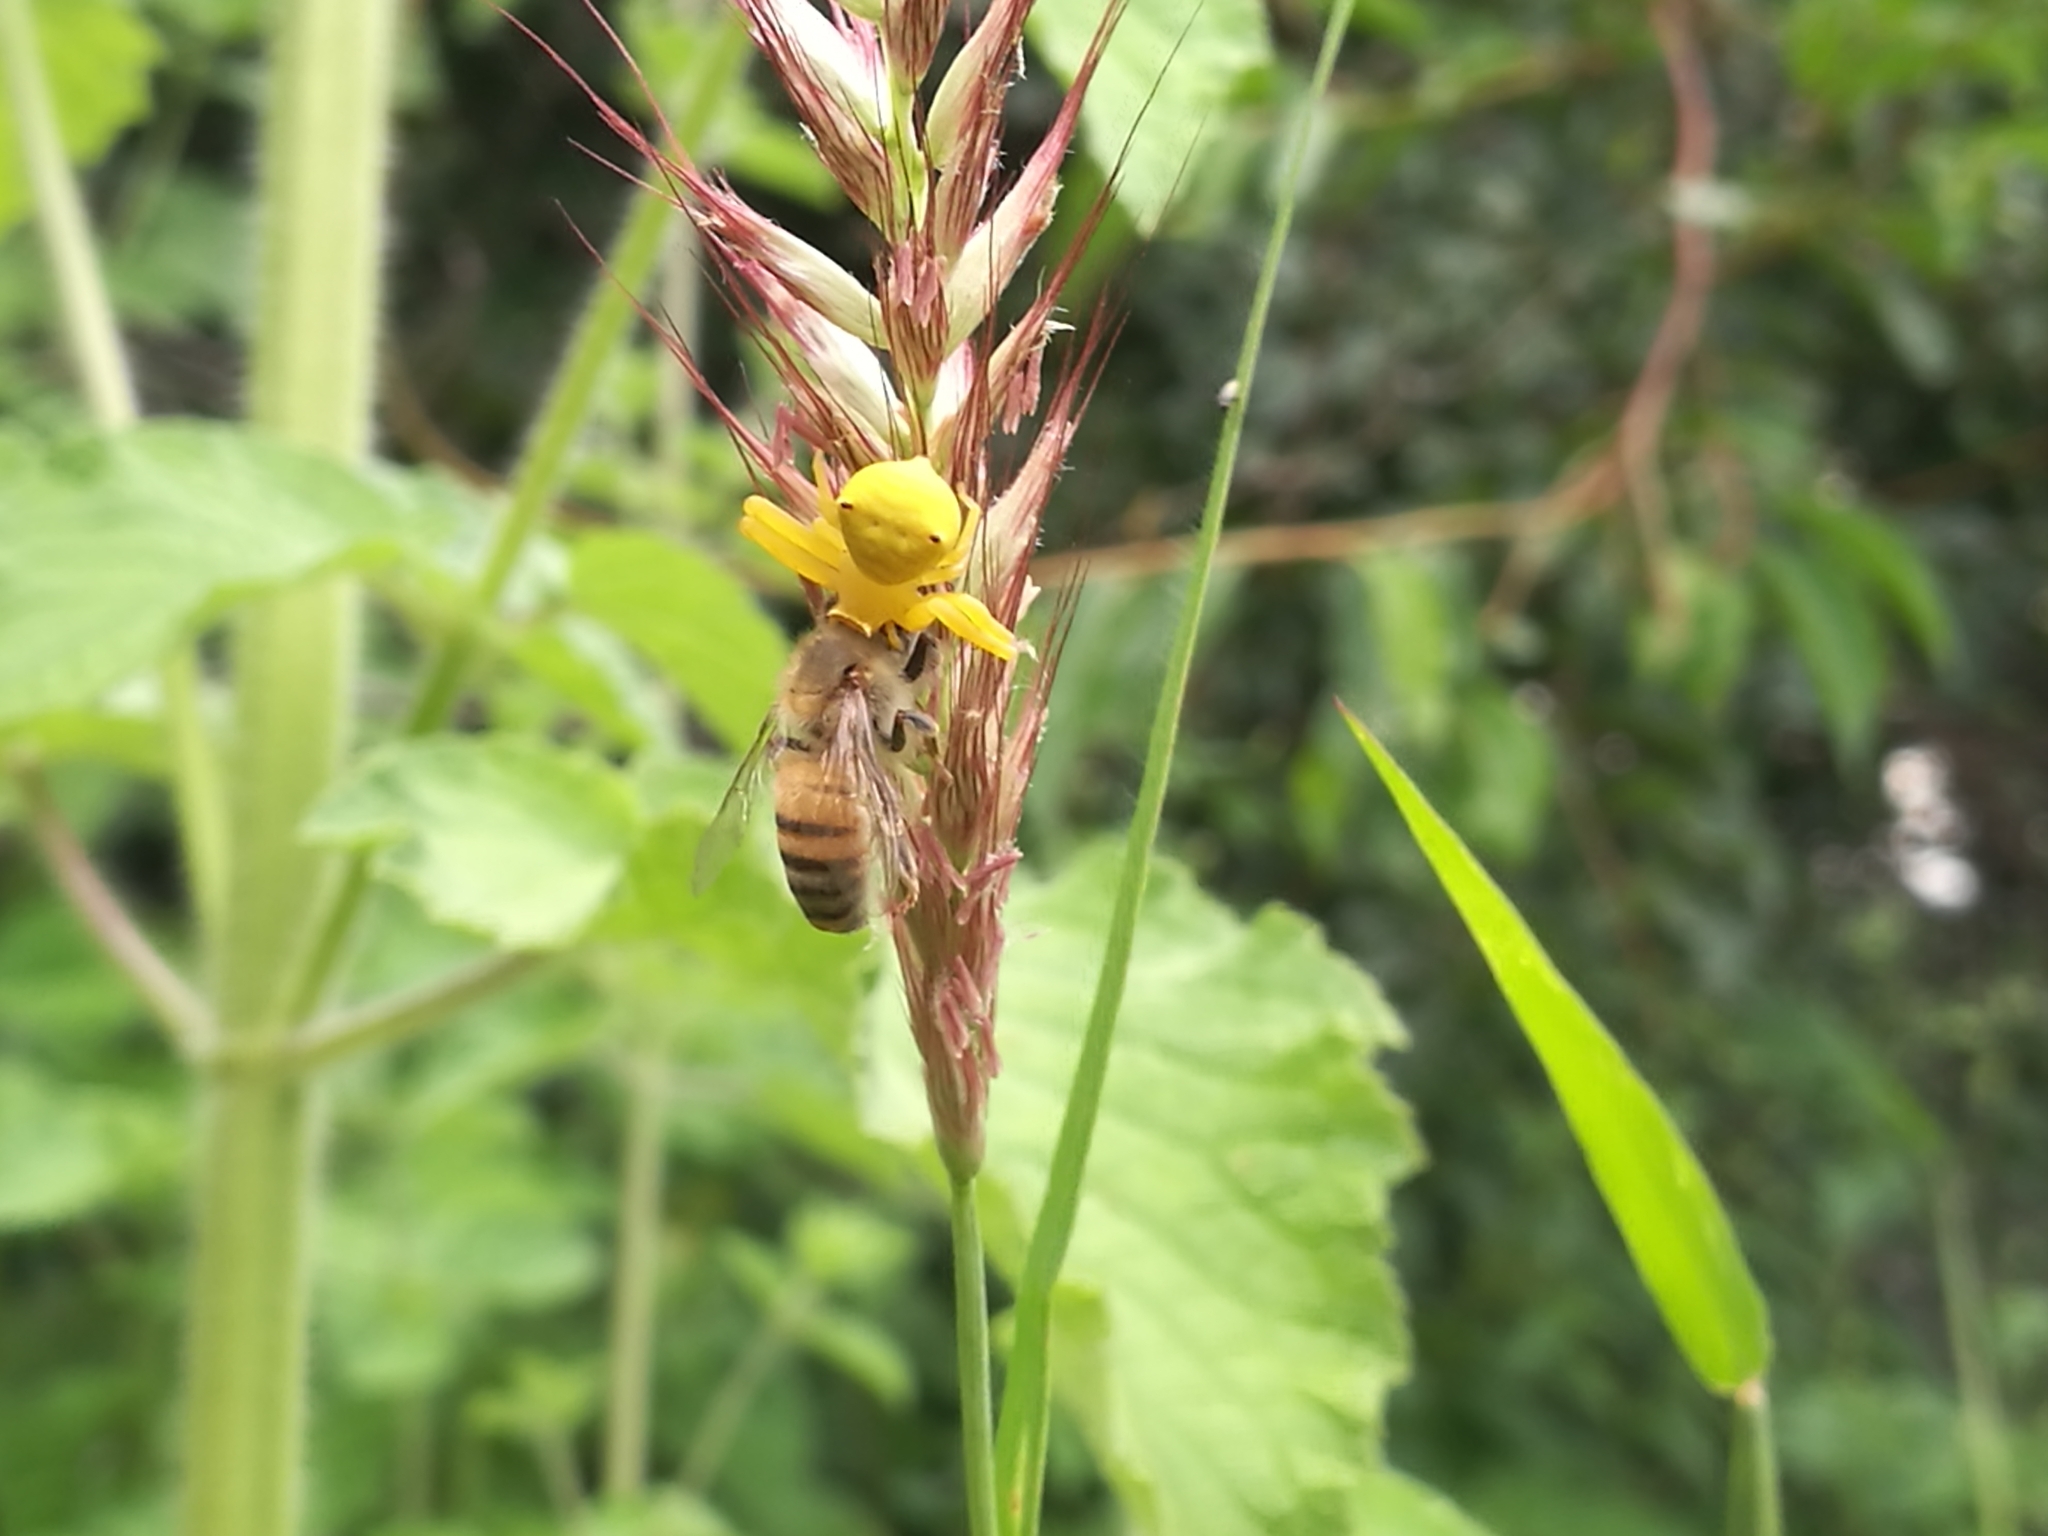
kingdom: Animalia
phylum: Arthropoda
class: Insecta
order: Hymenoptera
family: Apidae
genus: Apis
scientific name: Apis mellifera
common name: Honey bee
